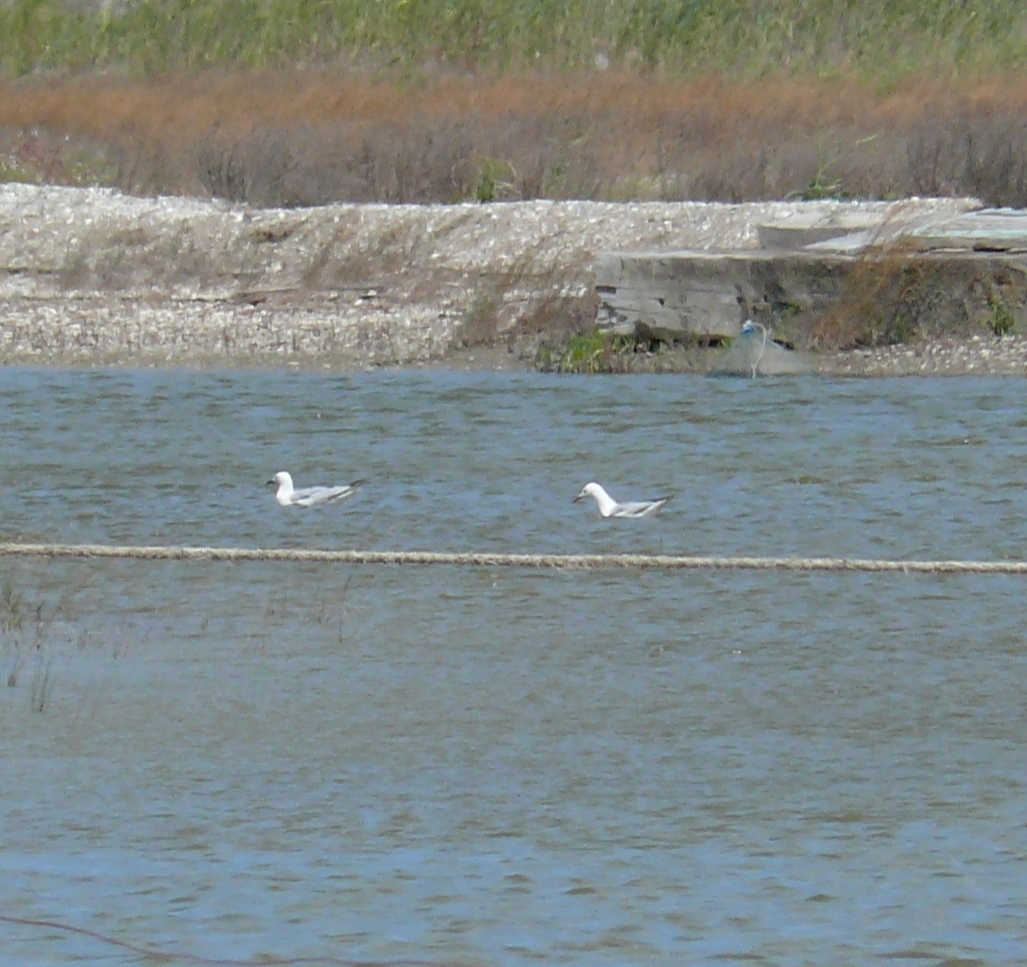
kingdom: Animalia
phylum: Chordata
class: Aves
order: Charadriiformes
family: Laridae
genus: Chroicocephalus
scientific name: Chroicocephalus genei
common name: Slender-billed gull
